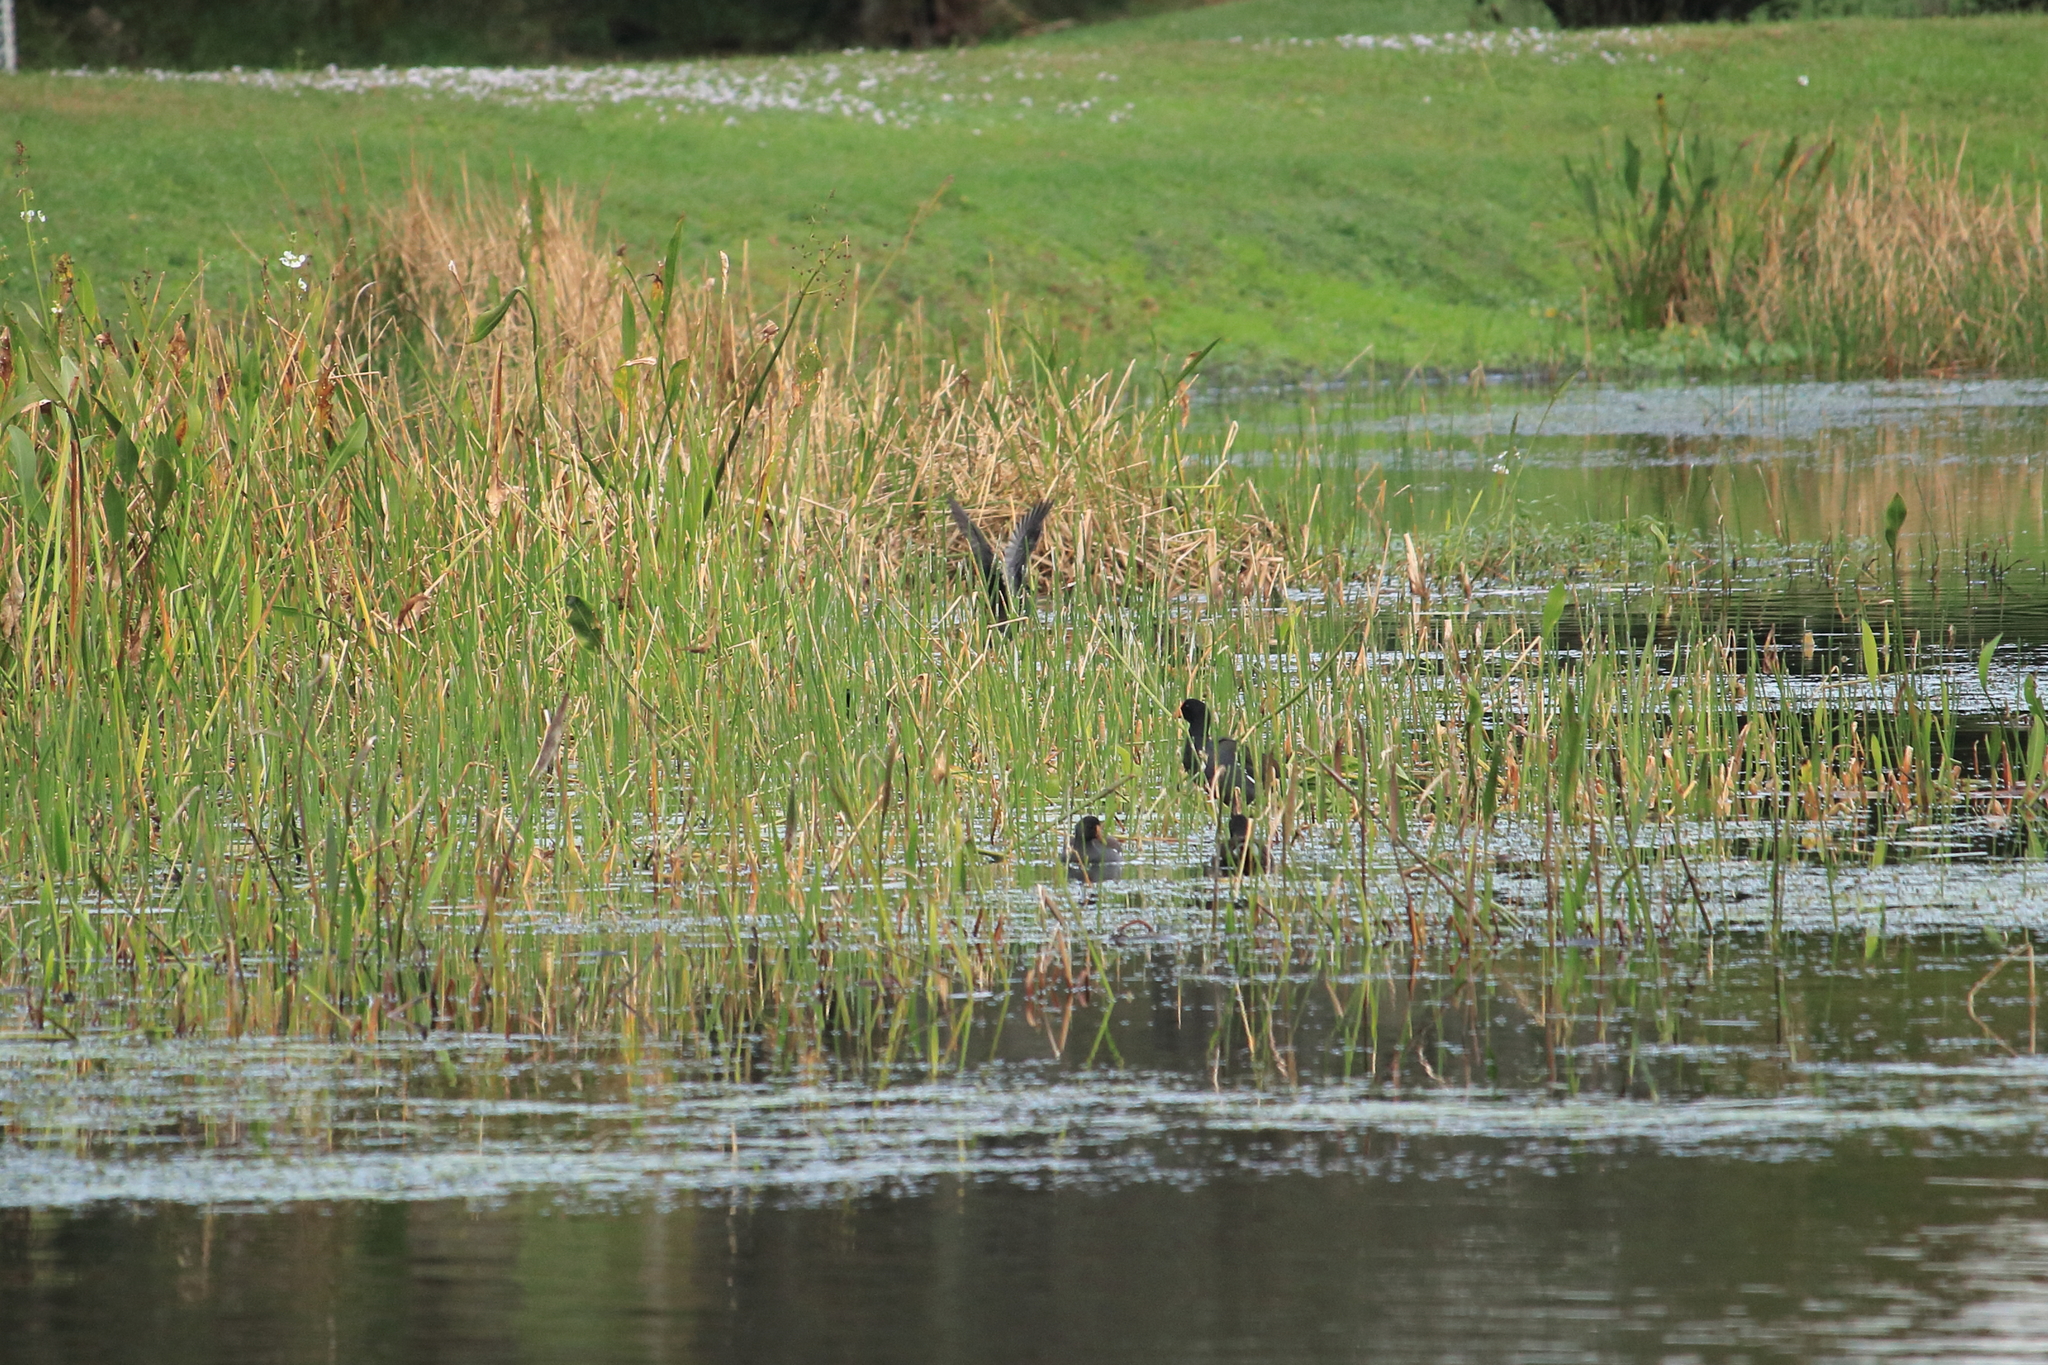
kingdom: Animalia
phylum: Chordata
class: Aves
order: Gruiformes
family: Rallidae
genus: Gallinula
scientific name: Gallinula chloropus
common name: Common moorhen
